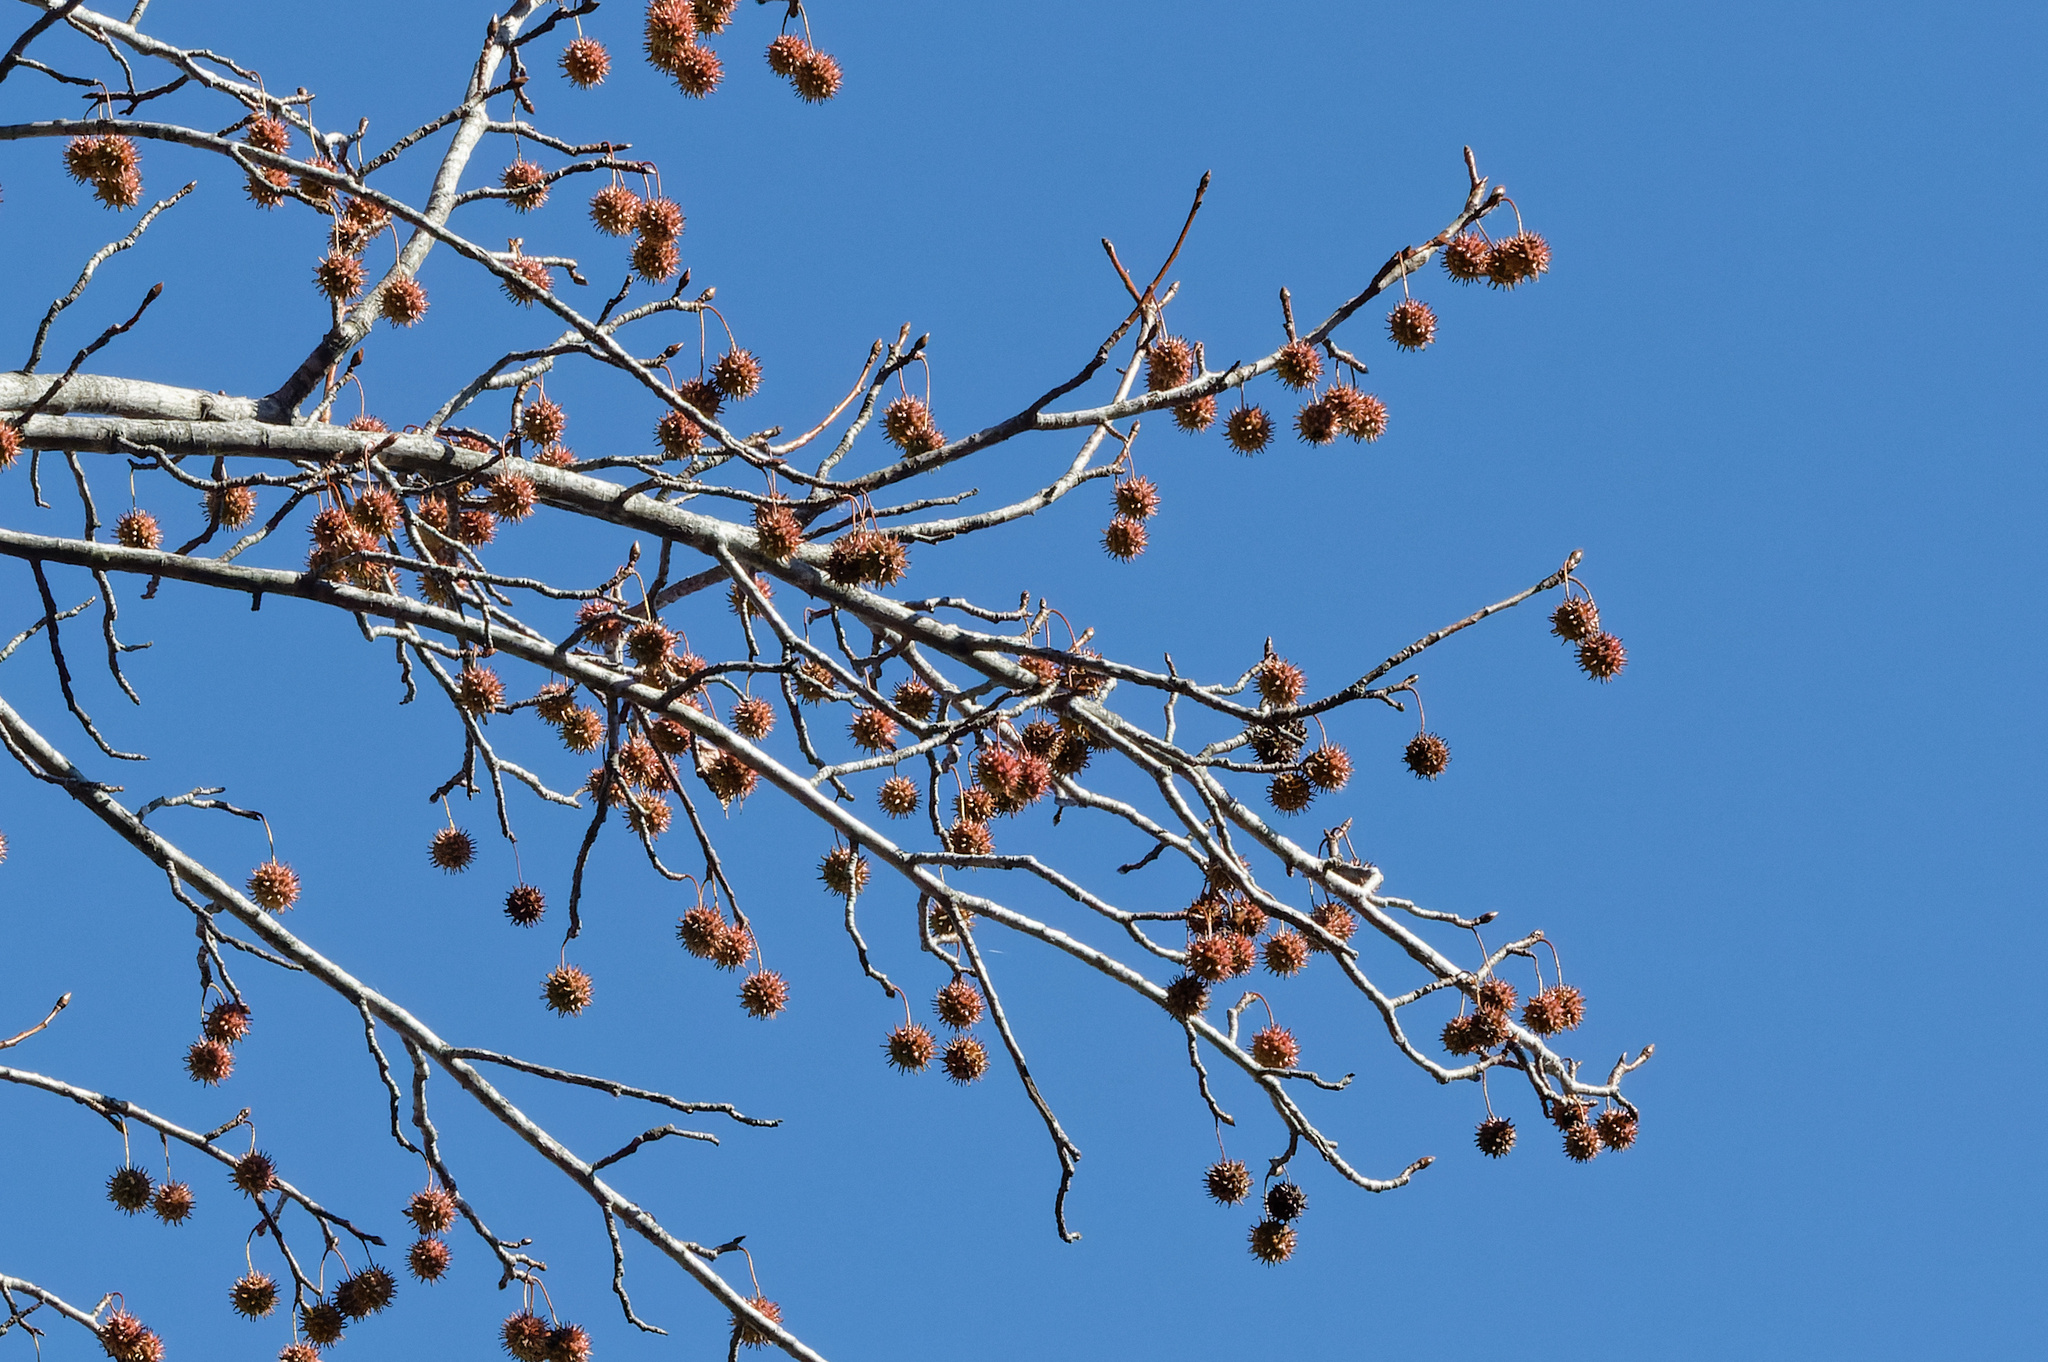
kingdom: Plantae
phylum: Tracheophyta
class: Magnoliopsida
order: Saxifragales
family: Altingiaceae
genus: Liquidambar
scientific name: Liquidambar styraciflua
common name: Sweet gum
